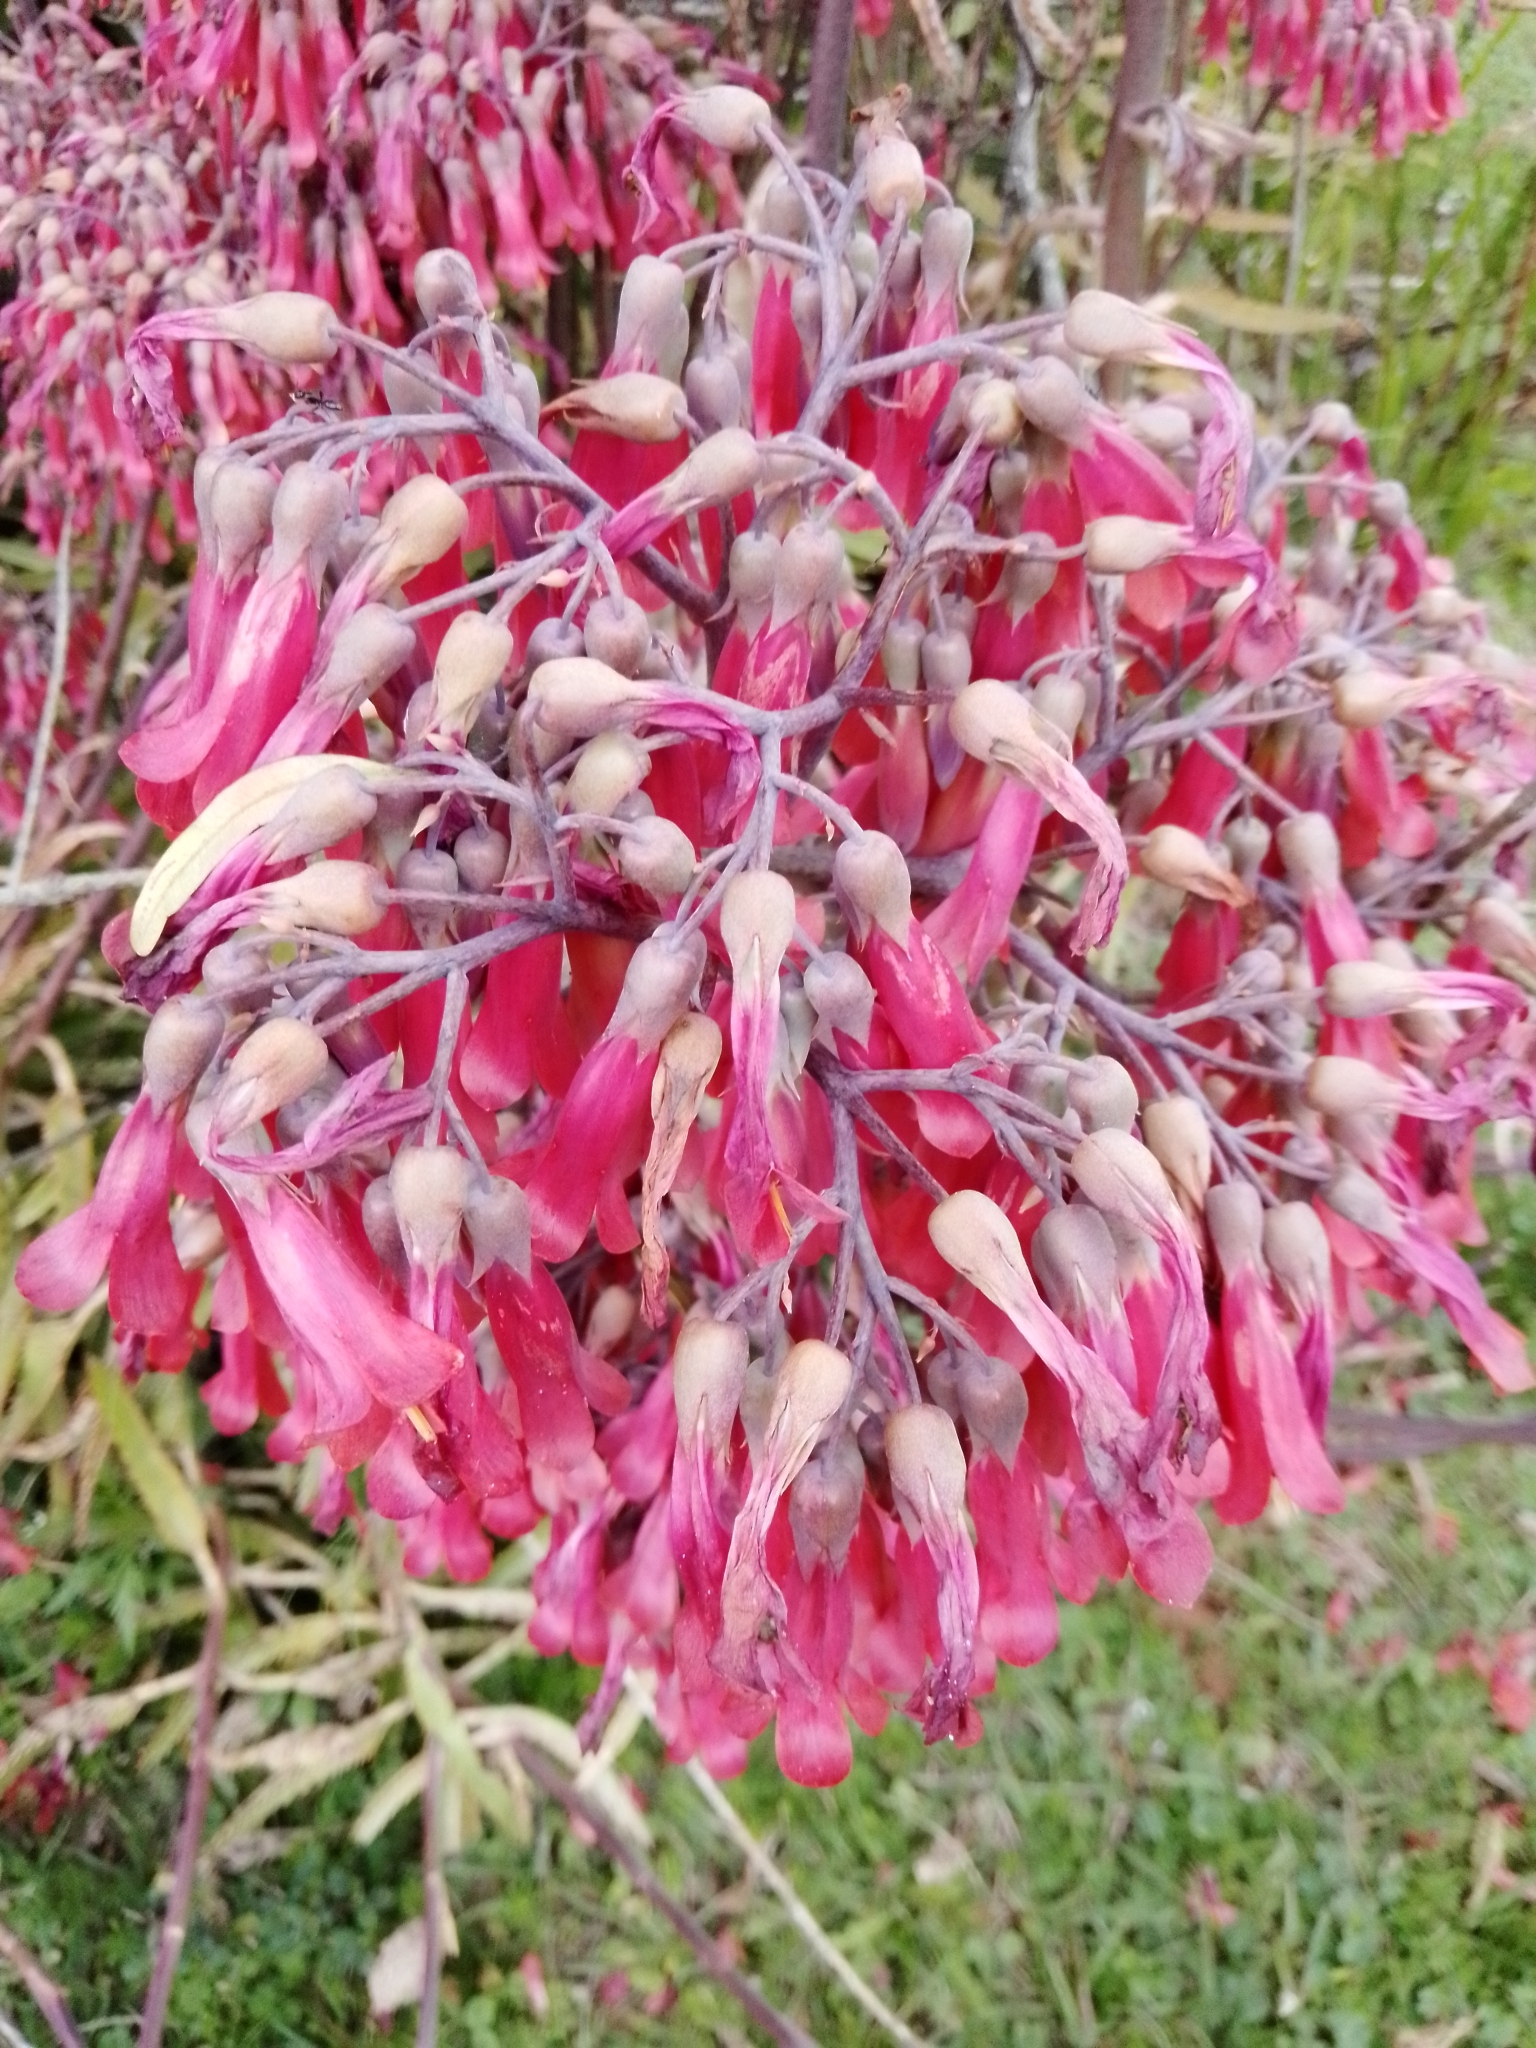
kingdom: Plantae
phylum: Tracheophyta
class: Magnoliopsida
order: Saxifragales
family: Crassulaceae
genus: Kalanchoe
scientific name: Kalanchoe houghtonii
